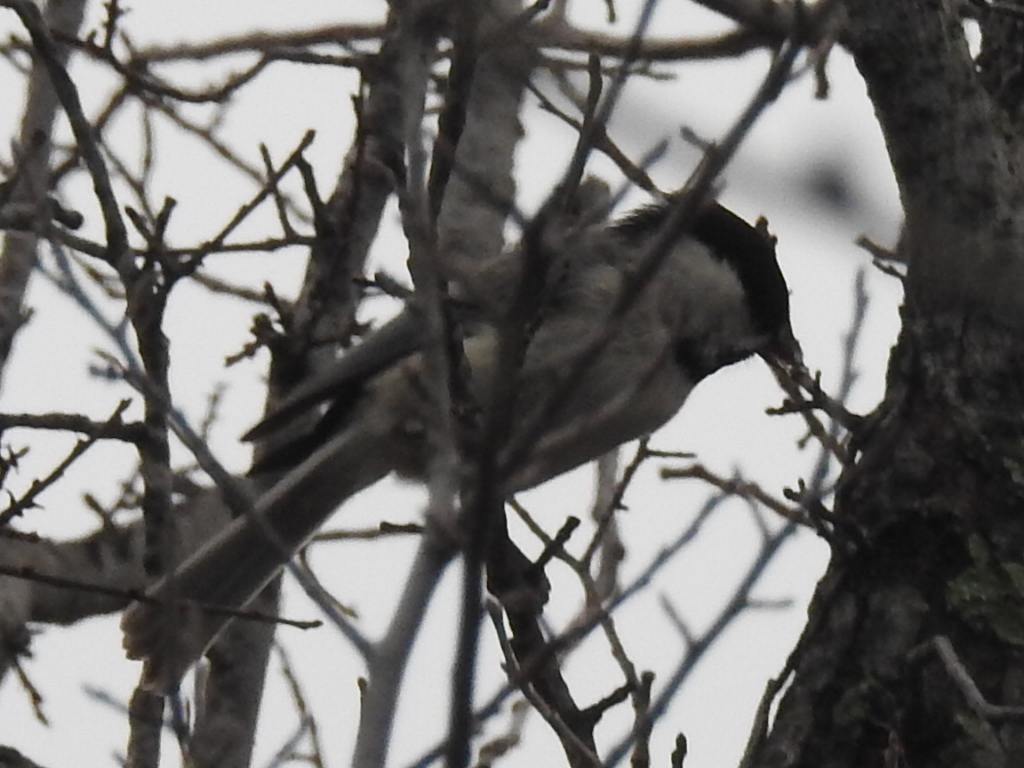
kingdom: Animalia
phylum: Chordata
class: Aves
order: Passeriformes
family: Paridae
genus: Poecile
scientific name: Poecile carolinensis
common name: Carolina chickadee
